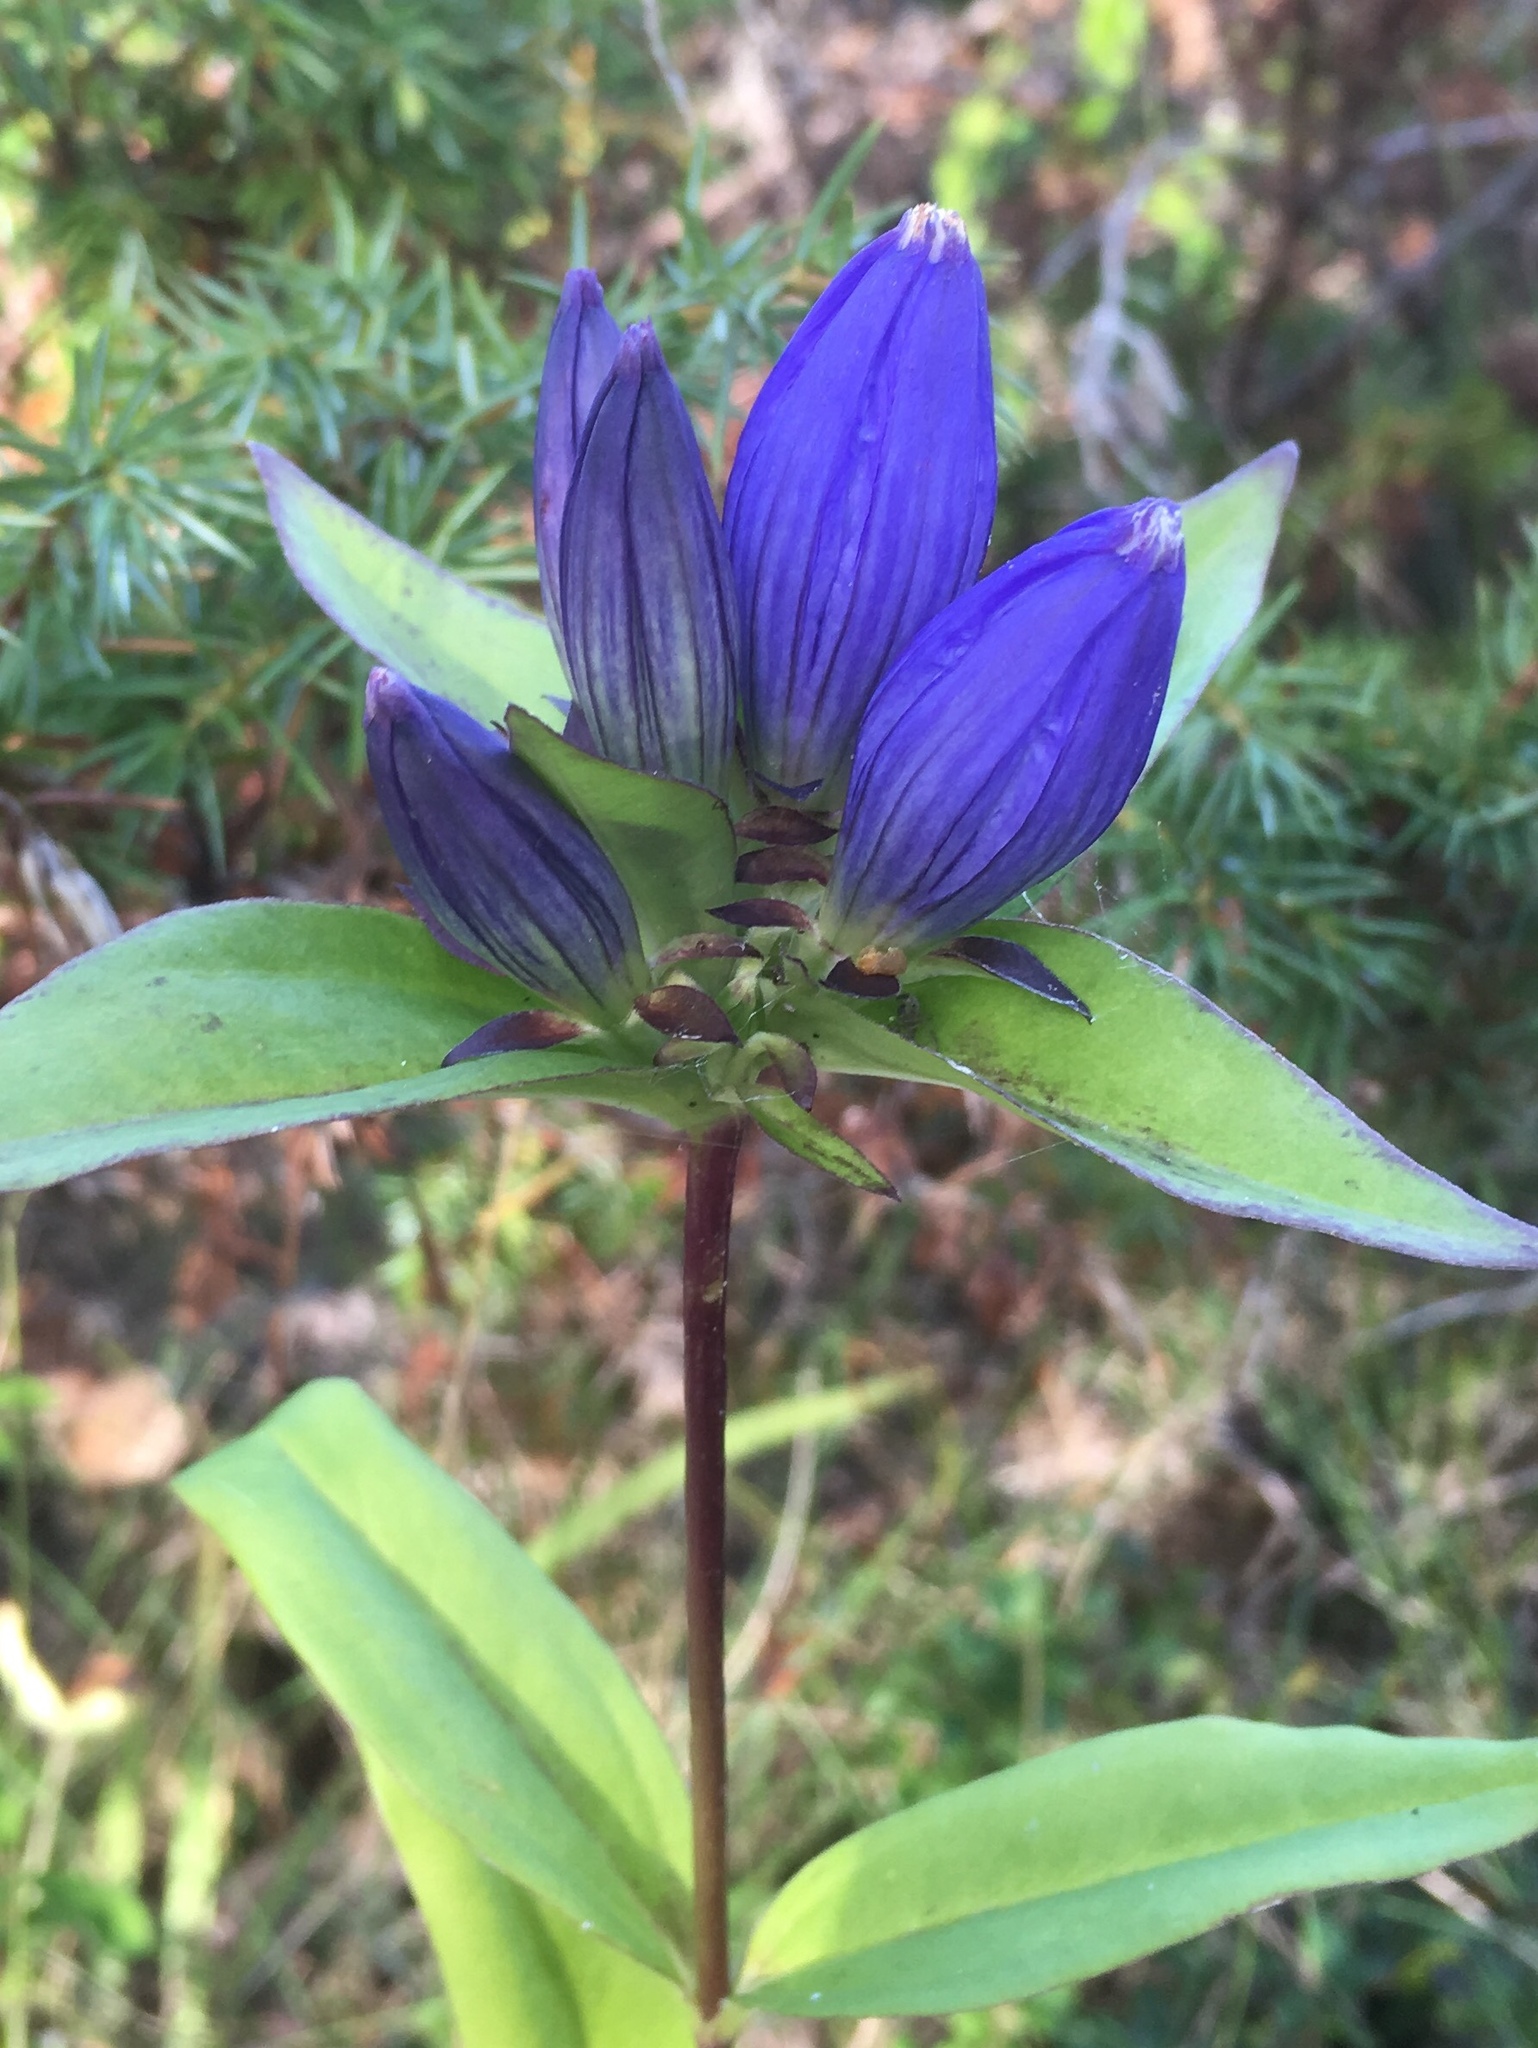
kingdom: Plantae
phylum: Tracheophyta
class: Magnoliopsida
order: Gentianales
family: Gentianaceae
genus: Gentiana
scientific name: Gentiana andrewsii
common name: Bottle gentian
